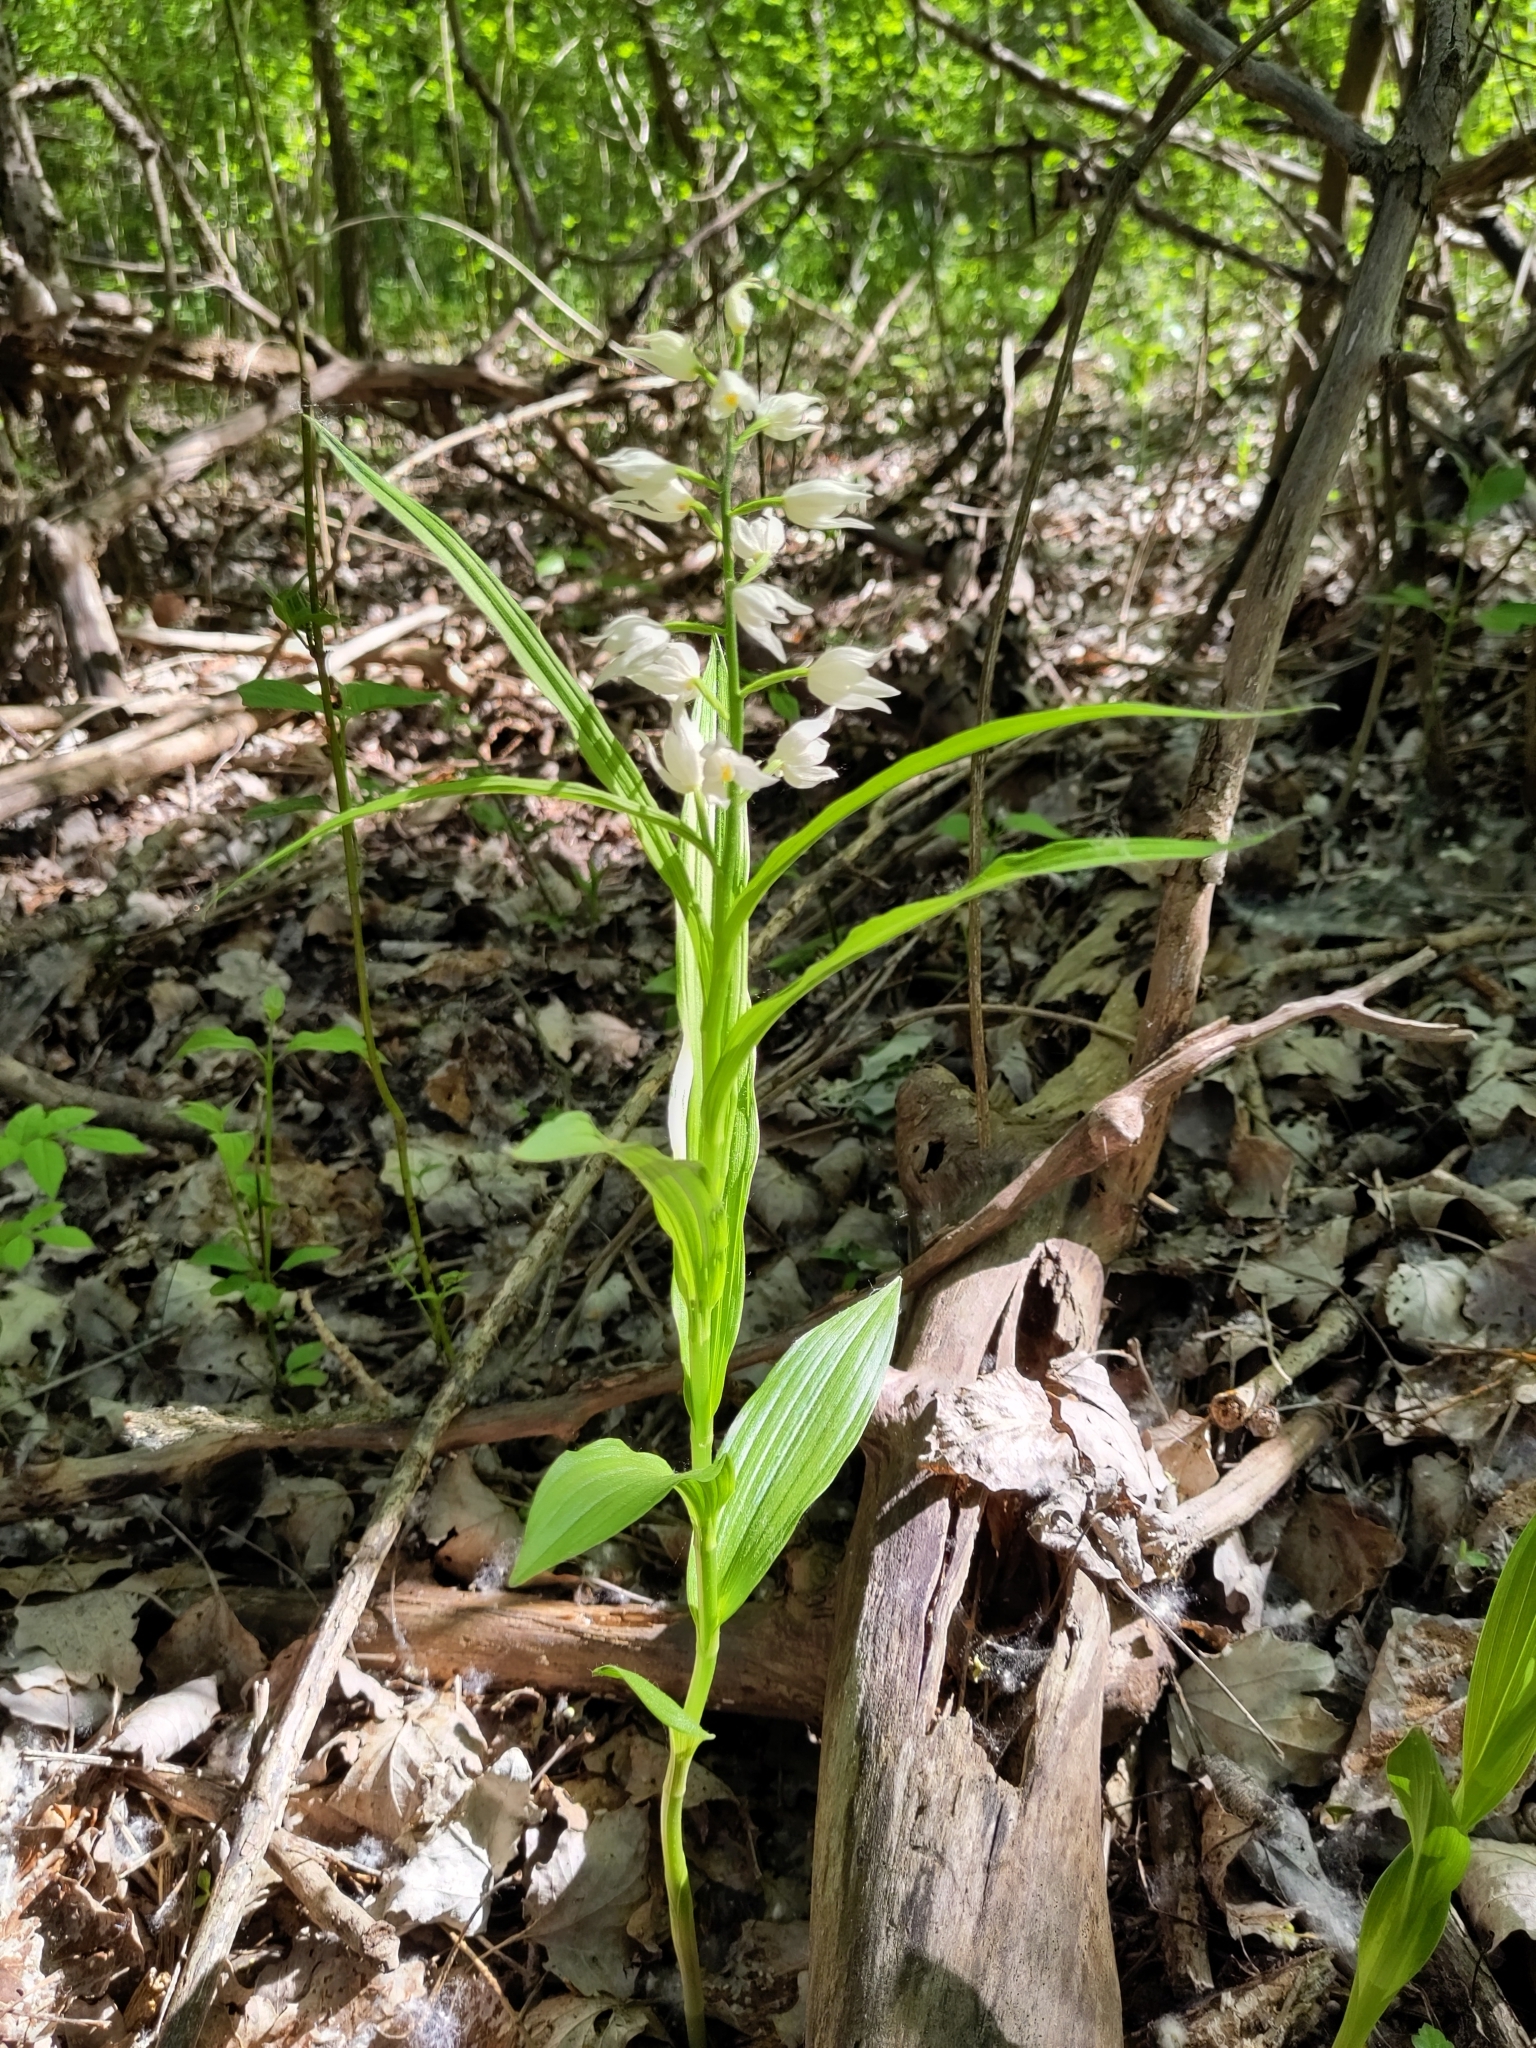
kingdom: Plantae
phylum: Tracheophyta
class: Liliopsida
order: Asparagales
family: Orchidaceae
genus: Cephalanthera
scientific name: Cephalanthera longifolia
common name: Narrow-leaved helleborine
